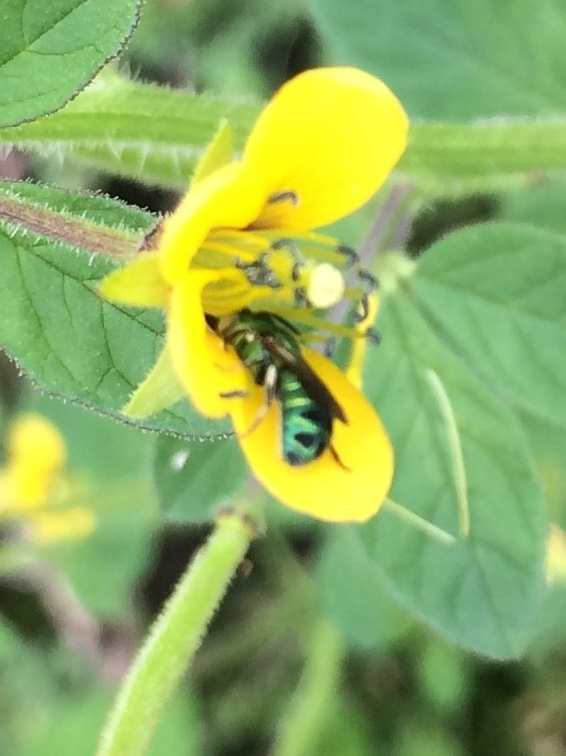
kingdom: Animalia
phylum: Arthropoda
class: Insecta
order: Hymenoptera
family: Apidae
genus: Ceratina
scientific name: Ceratina smaragdula
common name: Small carpenter bee
